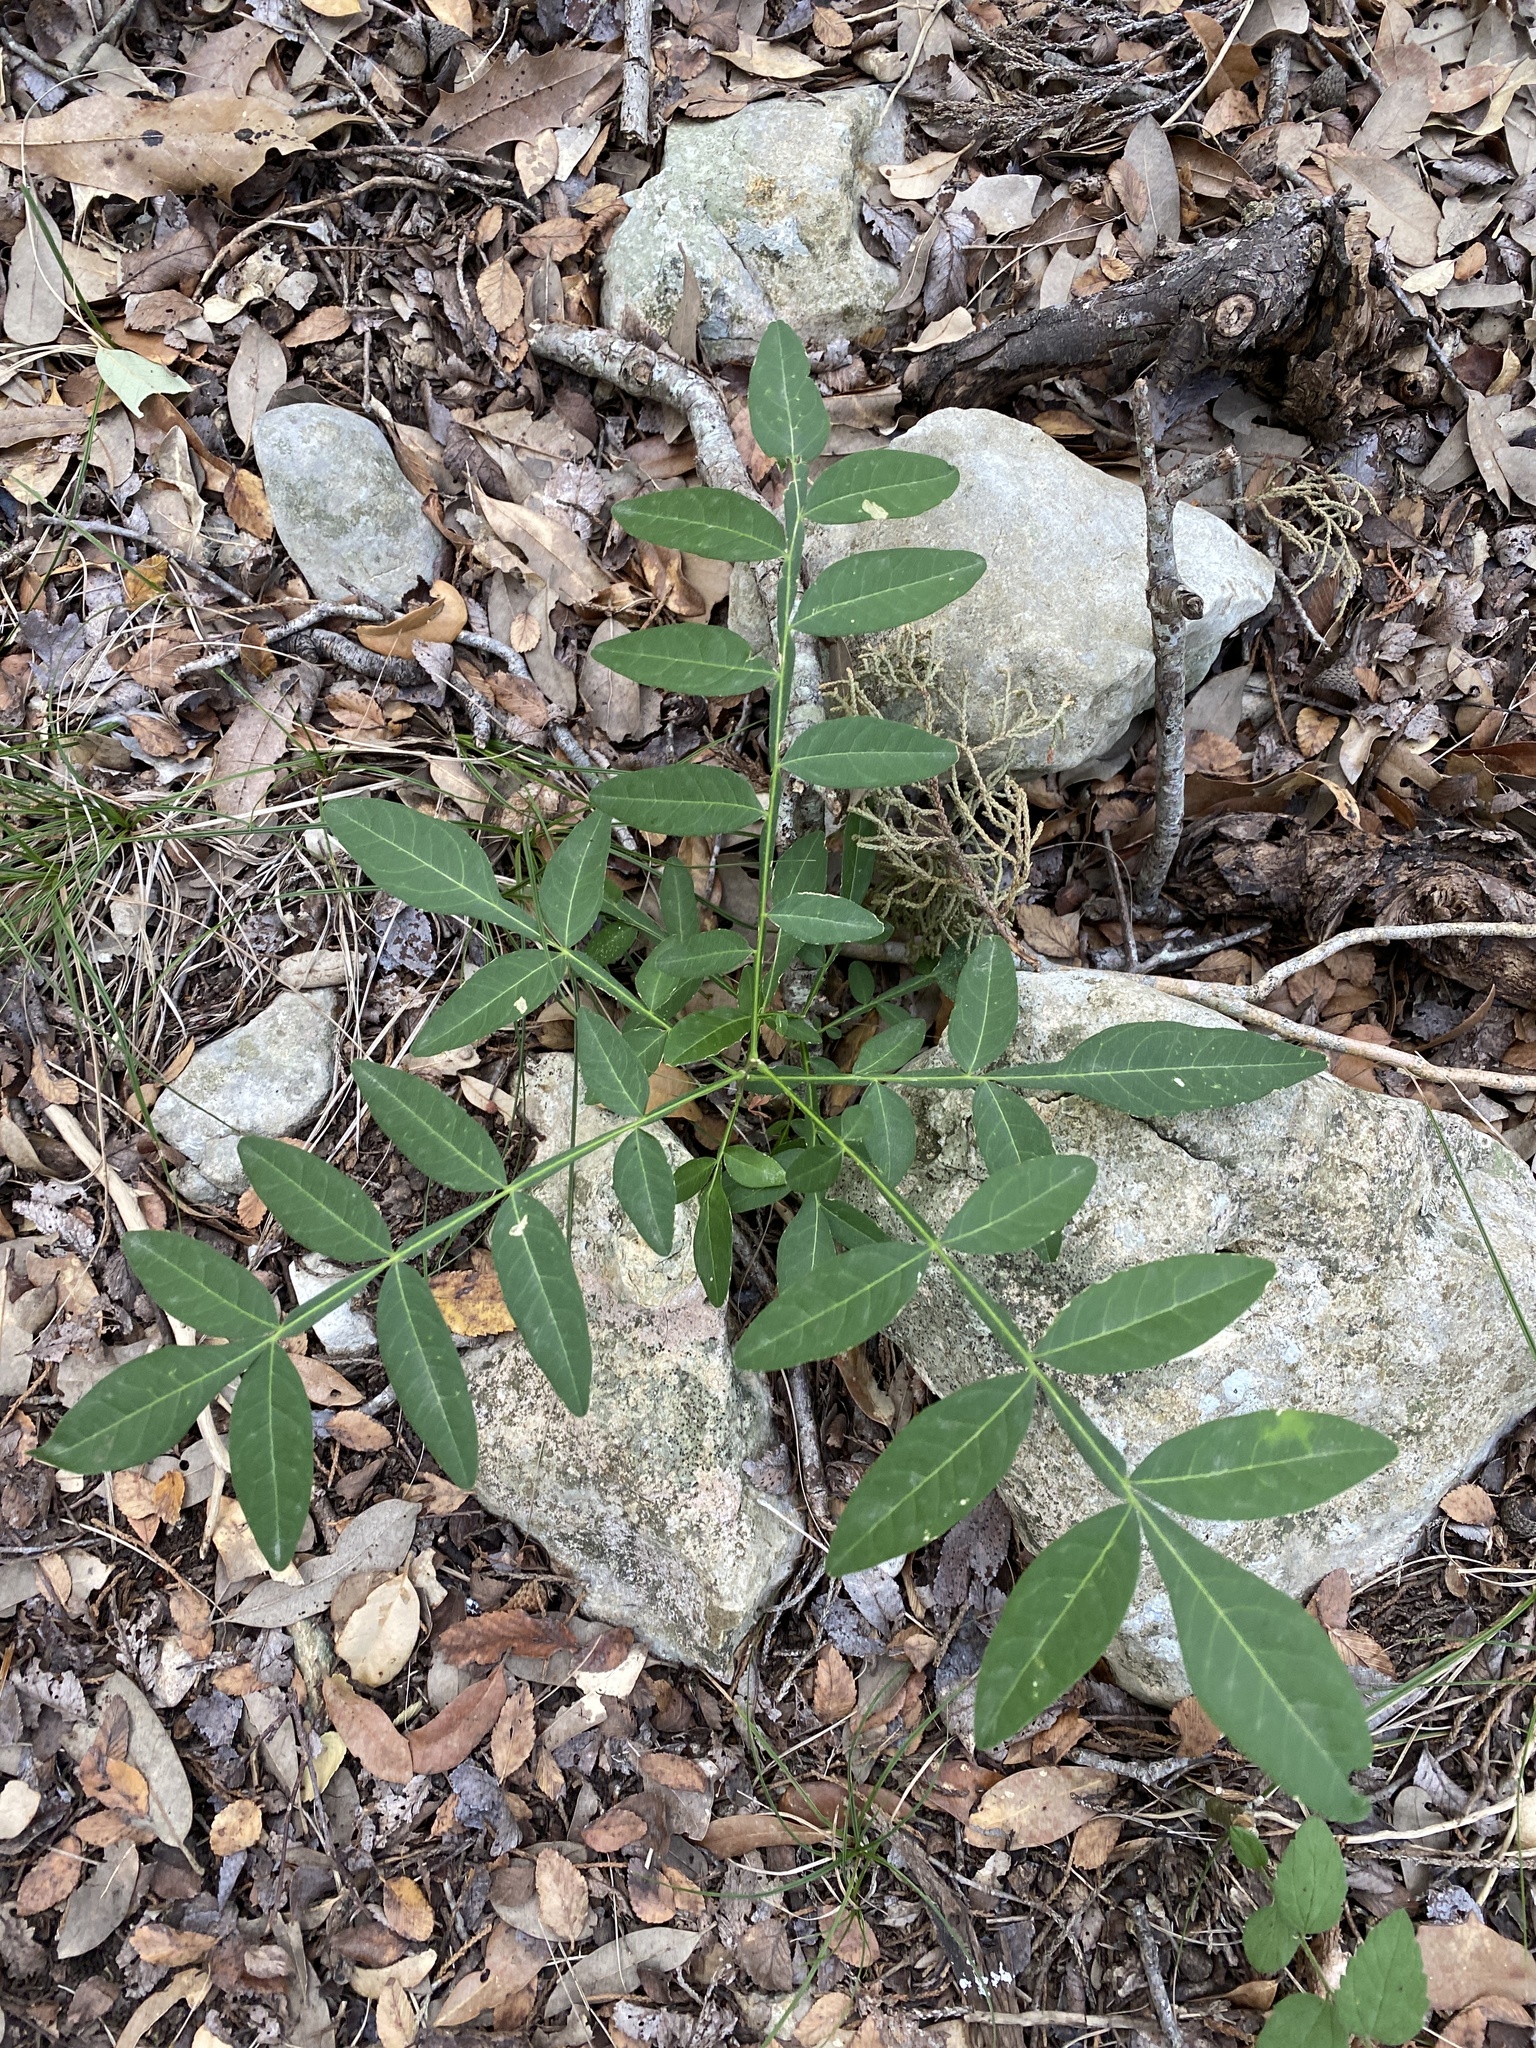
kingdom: Plantae
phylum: Tracheophyta
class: Magnoliopsida
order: Sapindales
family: Anacardiaceae
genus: Rhus
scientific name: Rhus lanceolata
